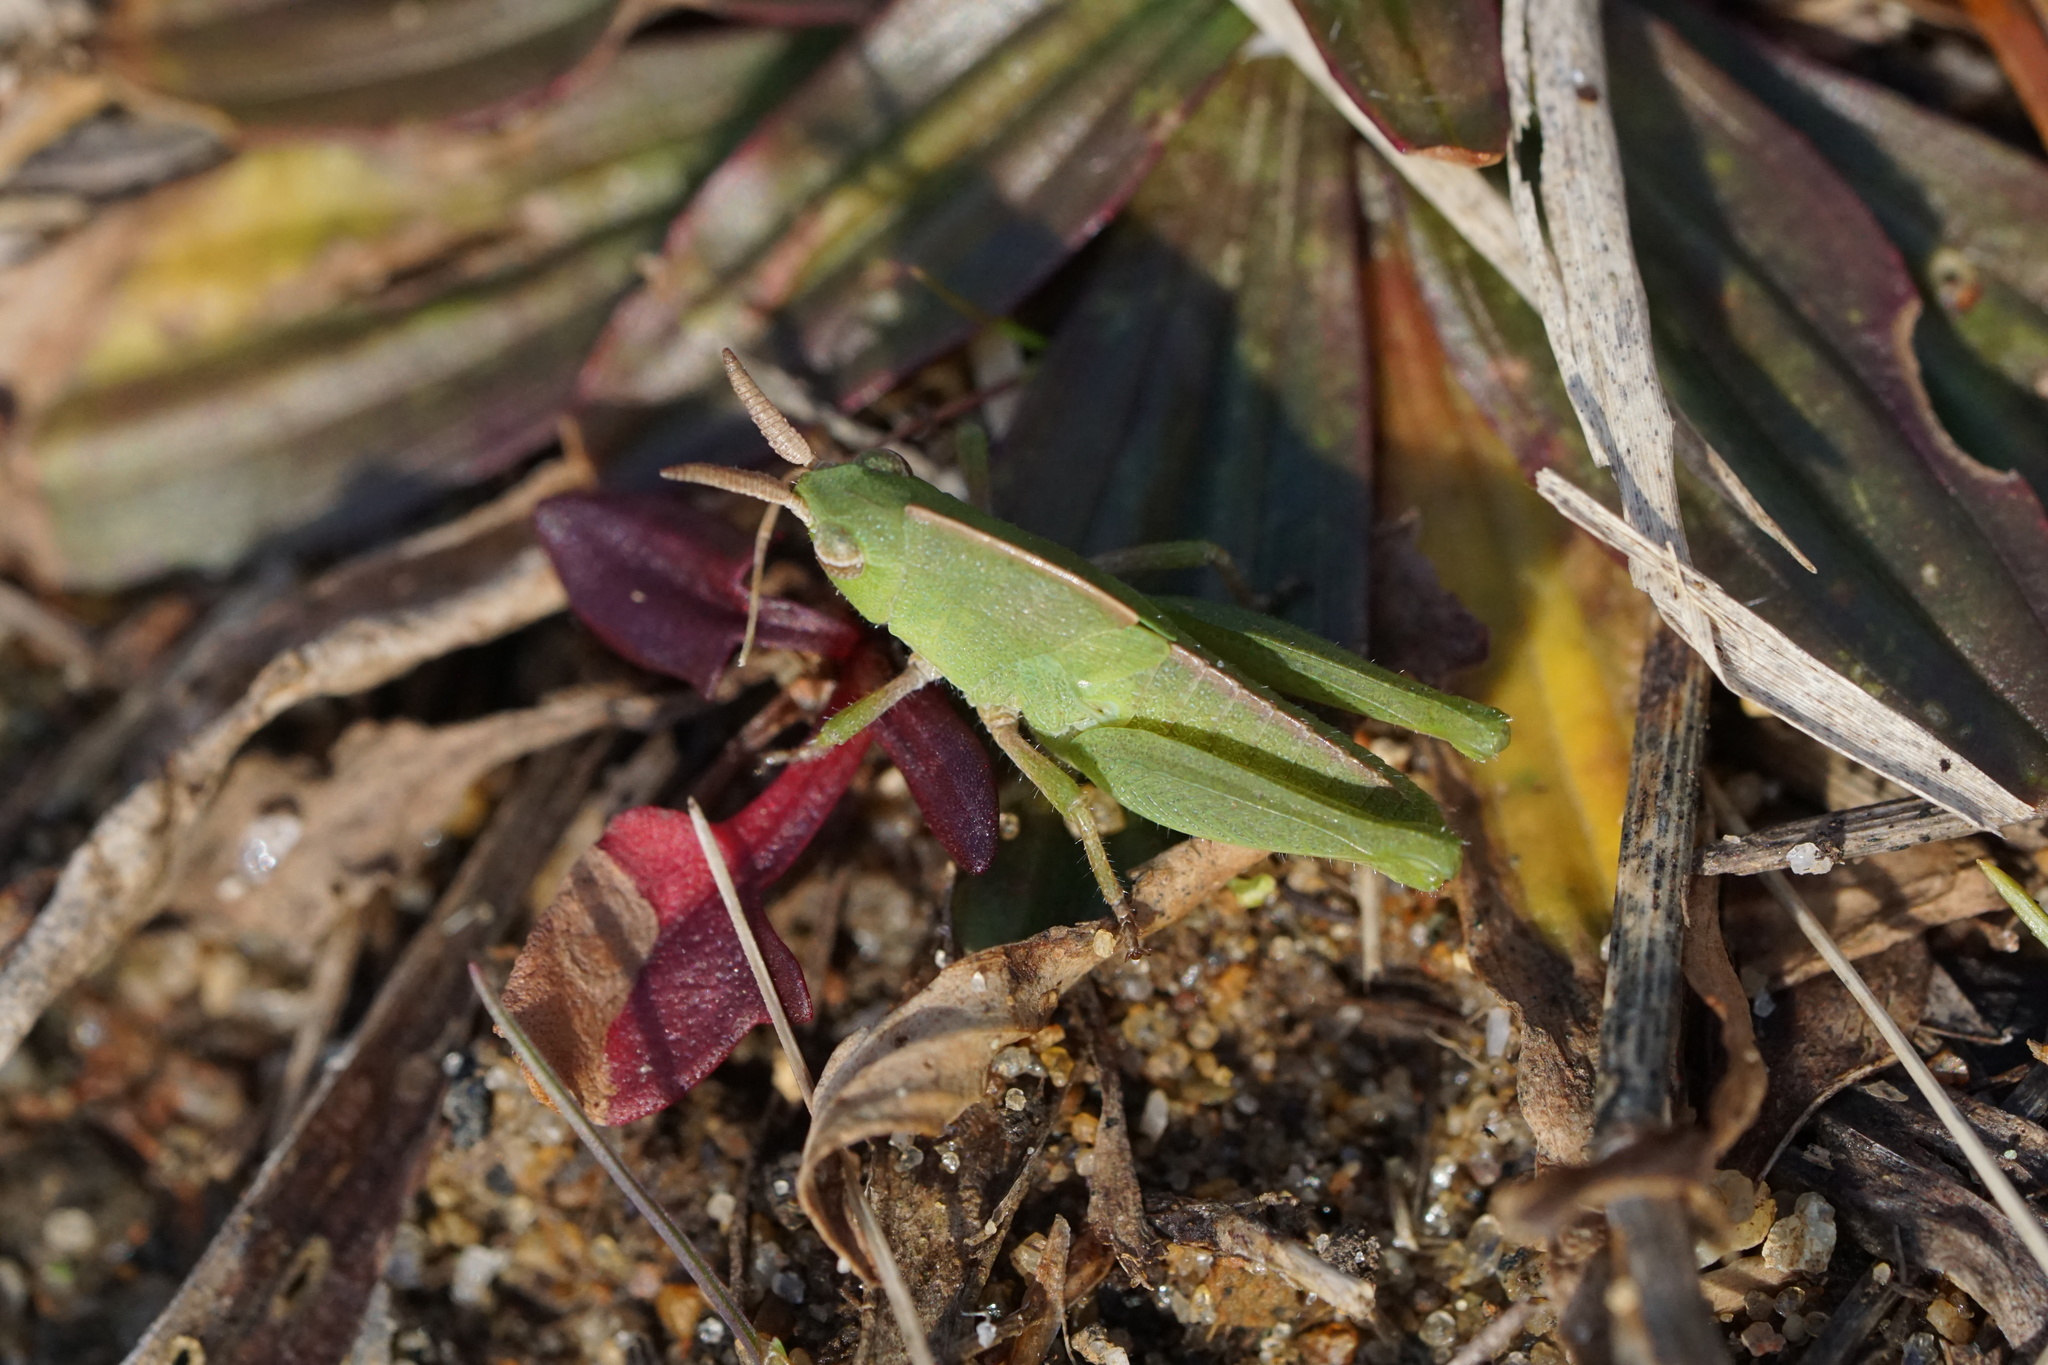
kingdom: Animalia
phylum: Arthropoda
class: Insecta
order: Orthoptera
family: Acrididae
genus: Chortophaga
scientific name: Chortophaga viridifasciata
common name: Green-striped grasshopper
